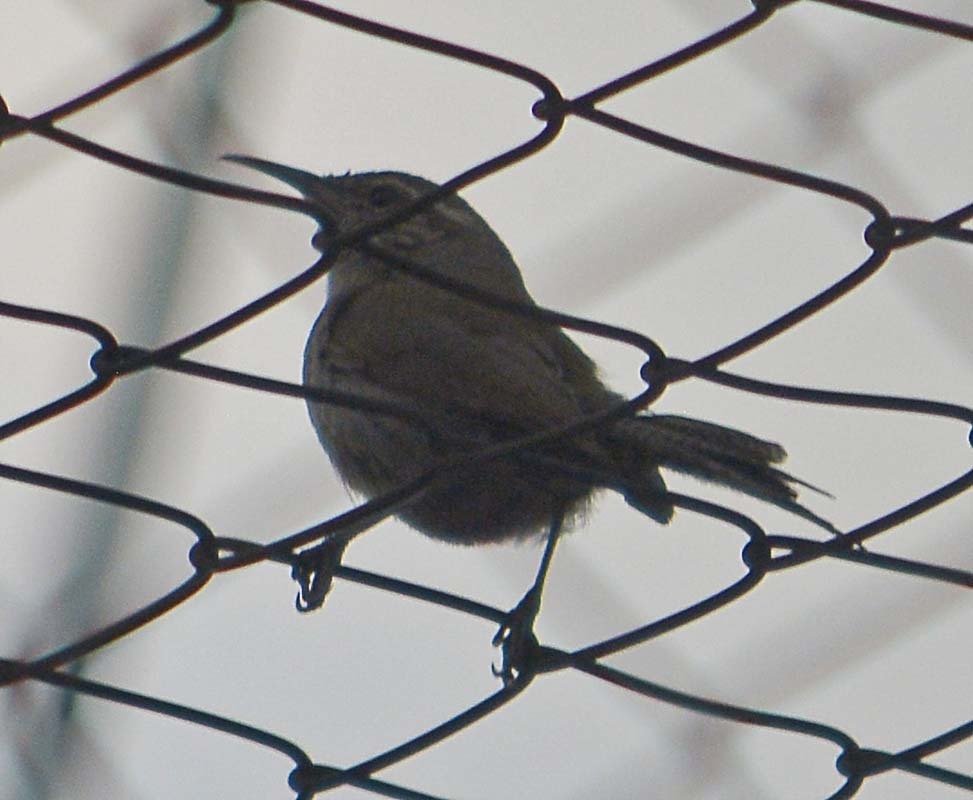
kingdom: Animalia
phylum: Chordata
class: Aves
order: Passeriformes
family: Troglodytidae
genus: Thryomanes
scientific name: Thryomanes bewickii
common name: Bewick's wren
